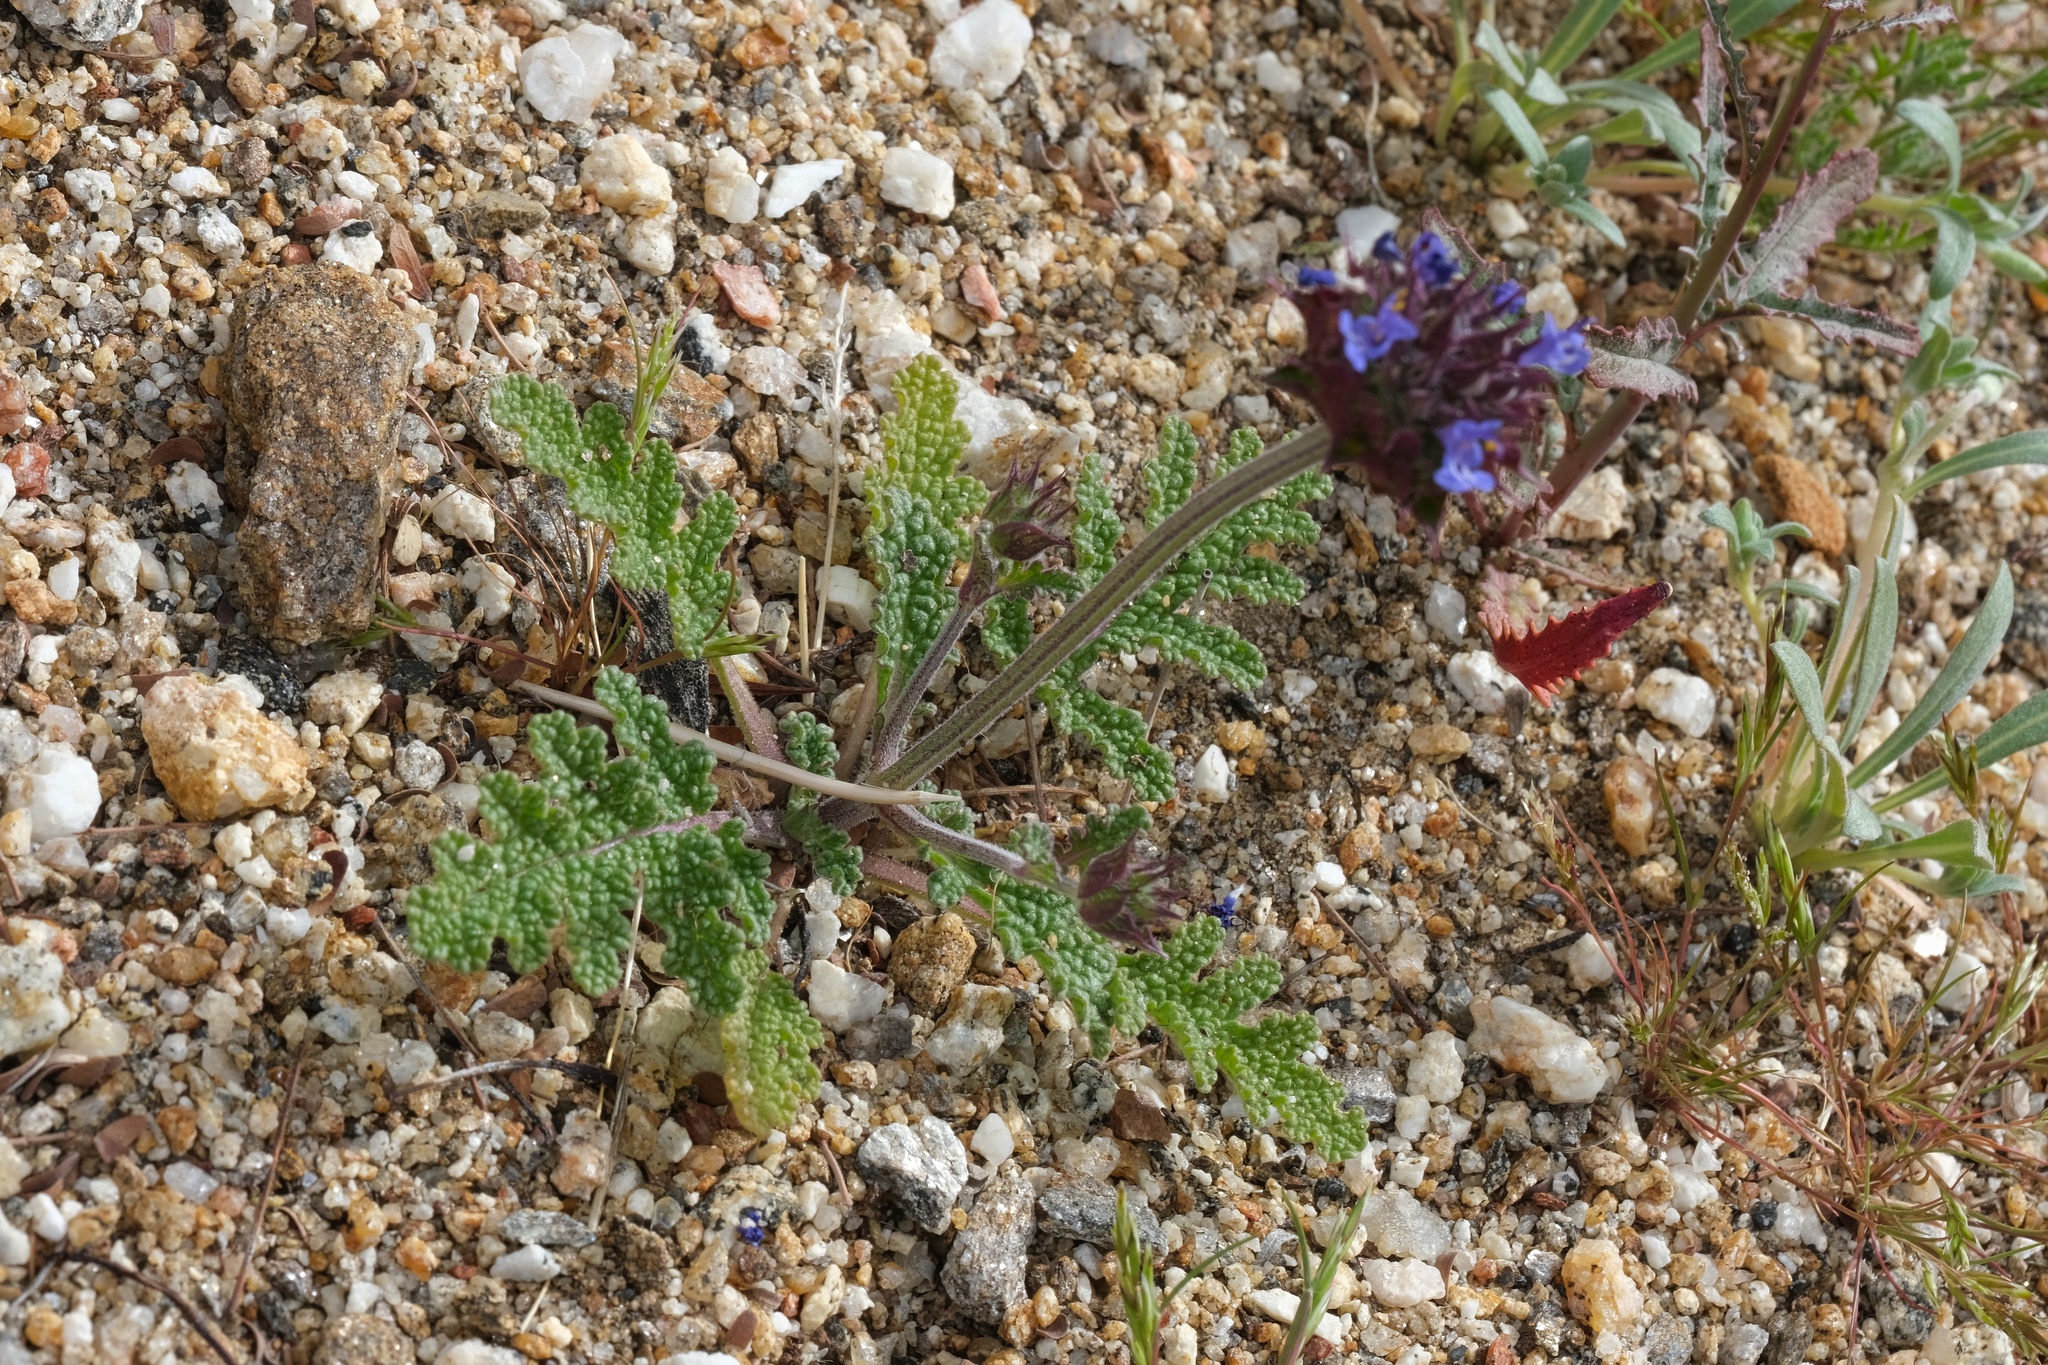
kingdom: Plantae
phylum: Tracheophyta
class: Magnoliopsida
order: Lamiales
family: Lamiaceae
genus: Salvia
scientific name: Salvia columbariae
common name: Chia
